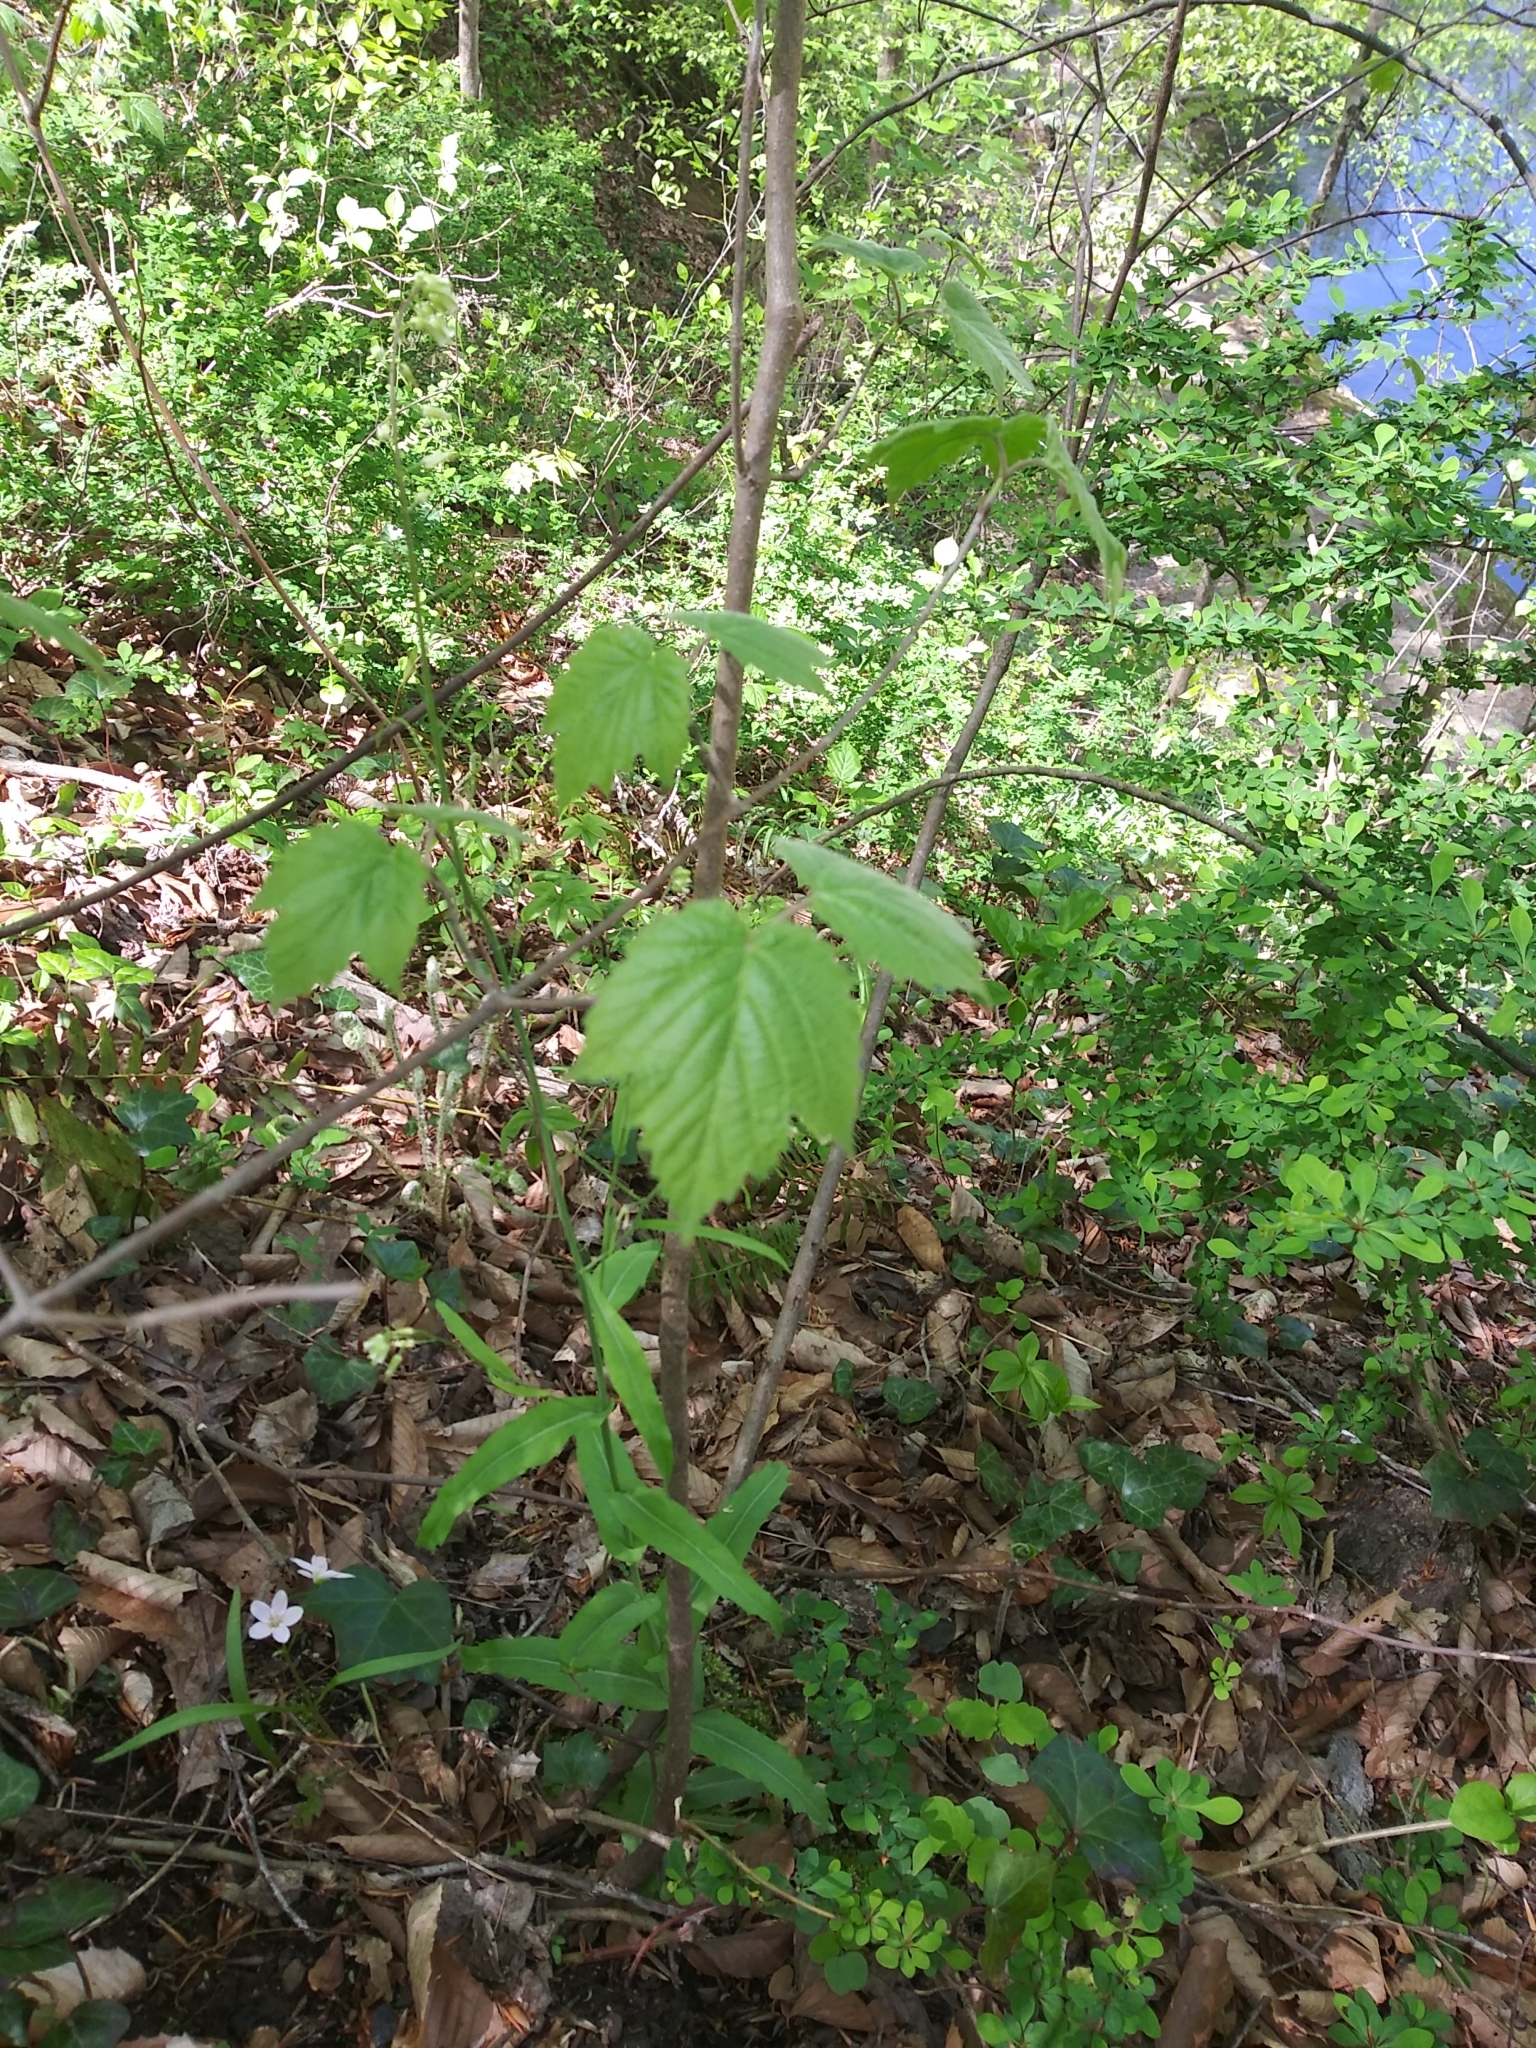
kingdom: Plantae
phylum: Tracheophyta
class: Magnoliopsida
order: Dipsacales
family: Viburnaceae
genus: Viburnum
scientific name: Viburnum acerifolium
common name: Dockmackie
